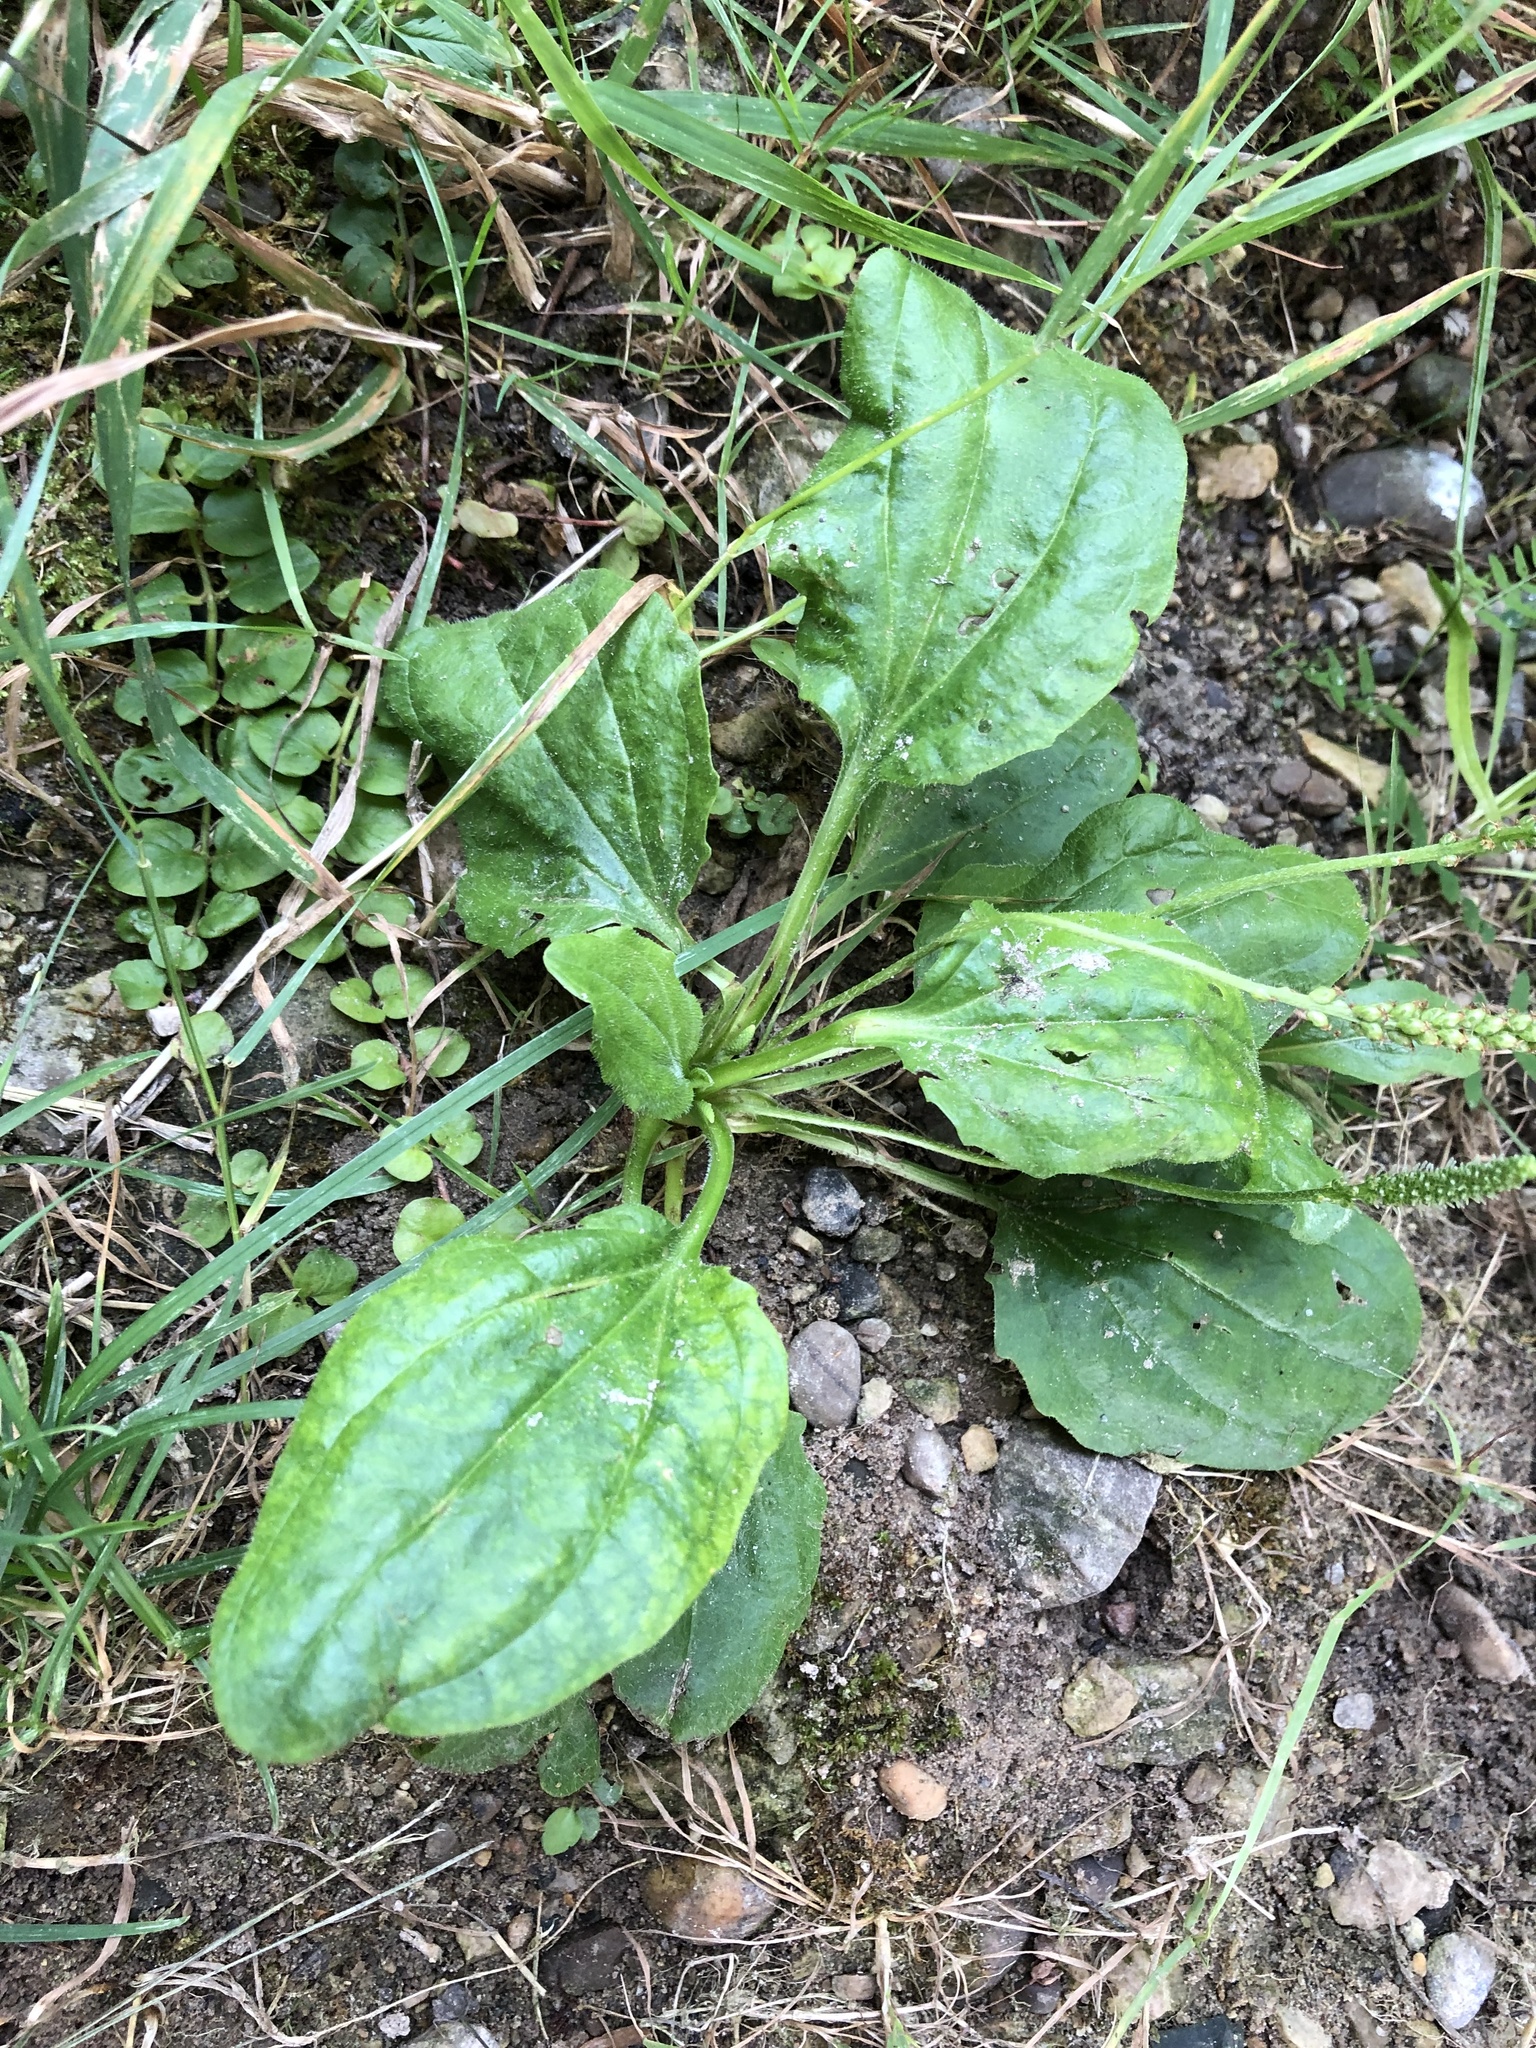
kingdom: Plantae
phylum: Tracheophyta
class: Magnoliopsida
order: Lamiales
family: Plantaginaceae
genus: Plantago
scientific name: Plantago major
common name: Common plantain
